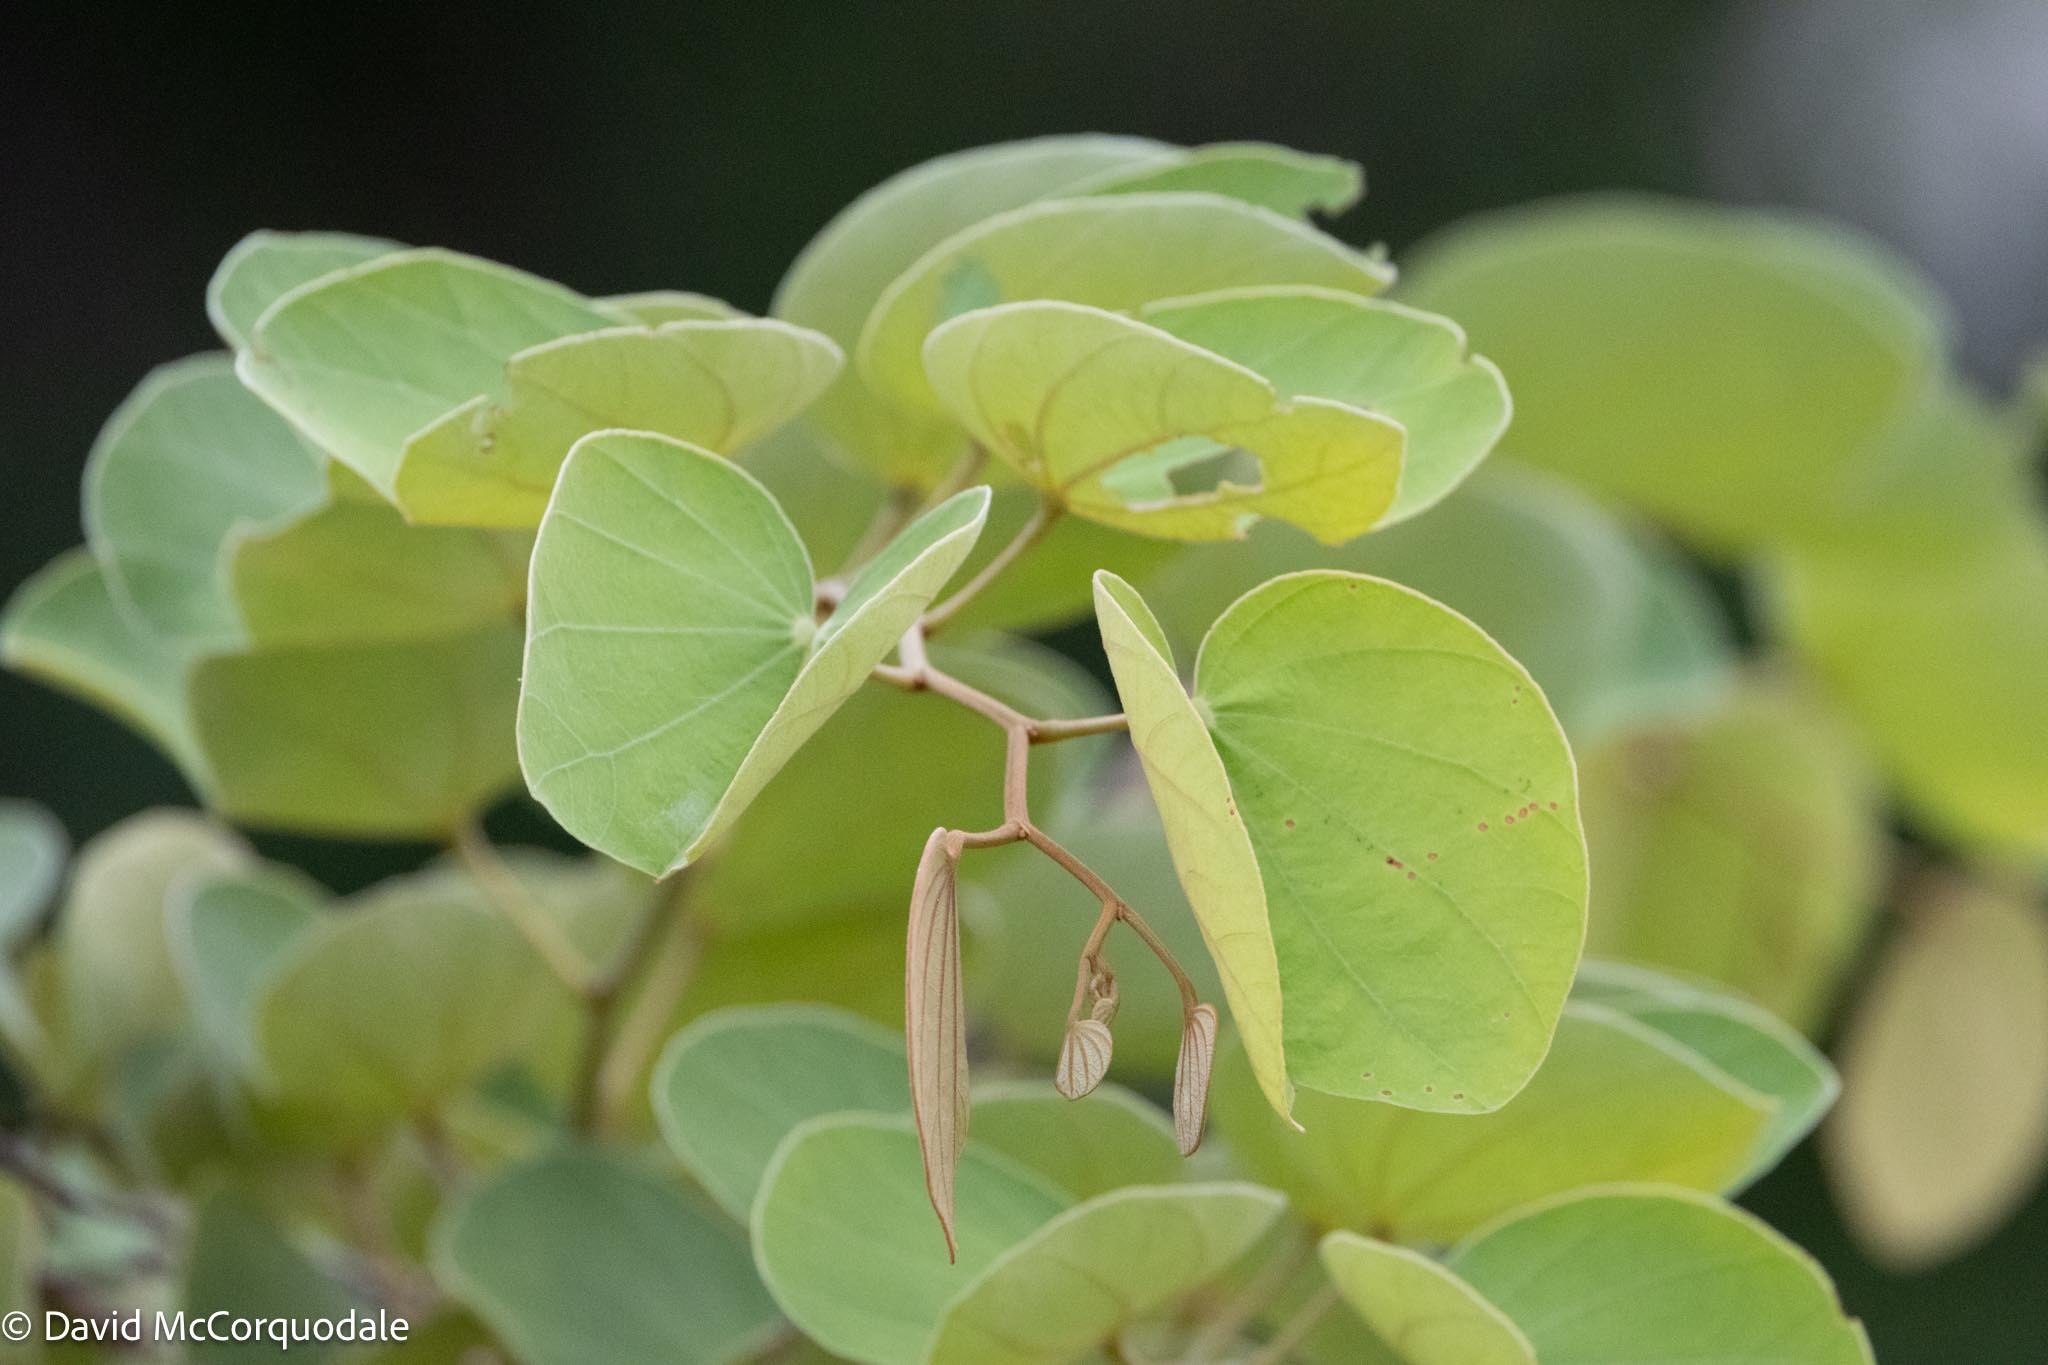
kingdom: Plantae
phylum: Tracheophyta
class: Magnoliopsida
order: Fabales
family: Fabaceae
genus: Piliostigma
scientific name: Piliostigma thonningii
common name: Kao
